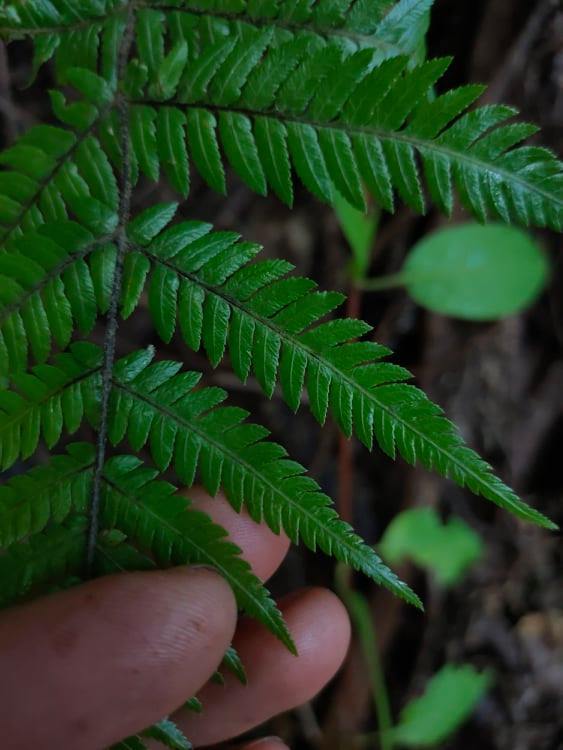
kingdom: Plantae
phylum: Tracheophyta
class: Polypodiopsida
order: Cyatheales
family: Cyatheaceae
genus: Alsophila
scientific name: Alsophila dealbata
